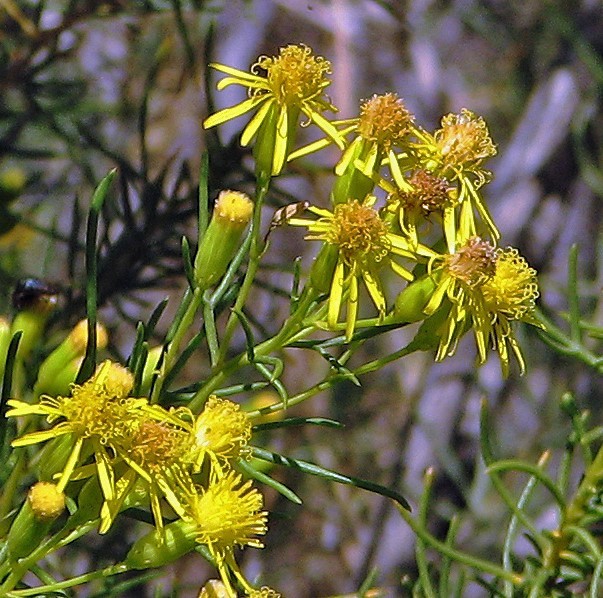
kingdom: Plantae
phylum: Tracheophyta
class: Magnoliopsida
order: Asterales
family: Asteraceae
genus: Senecio
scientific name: Senecio subulatus
